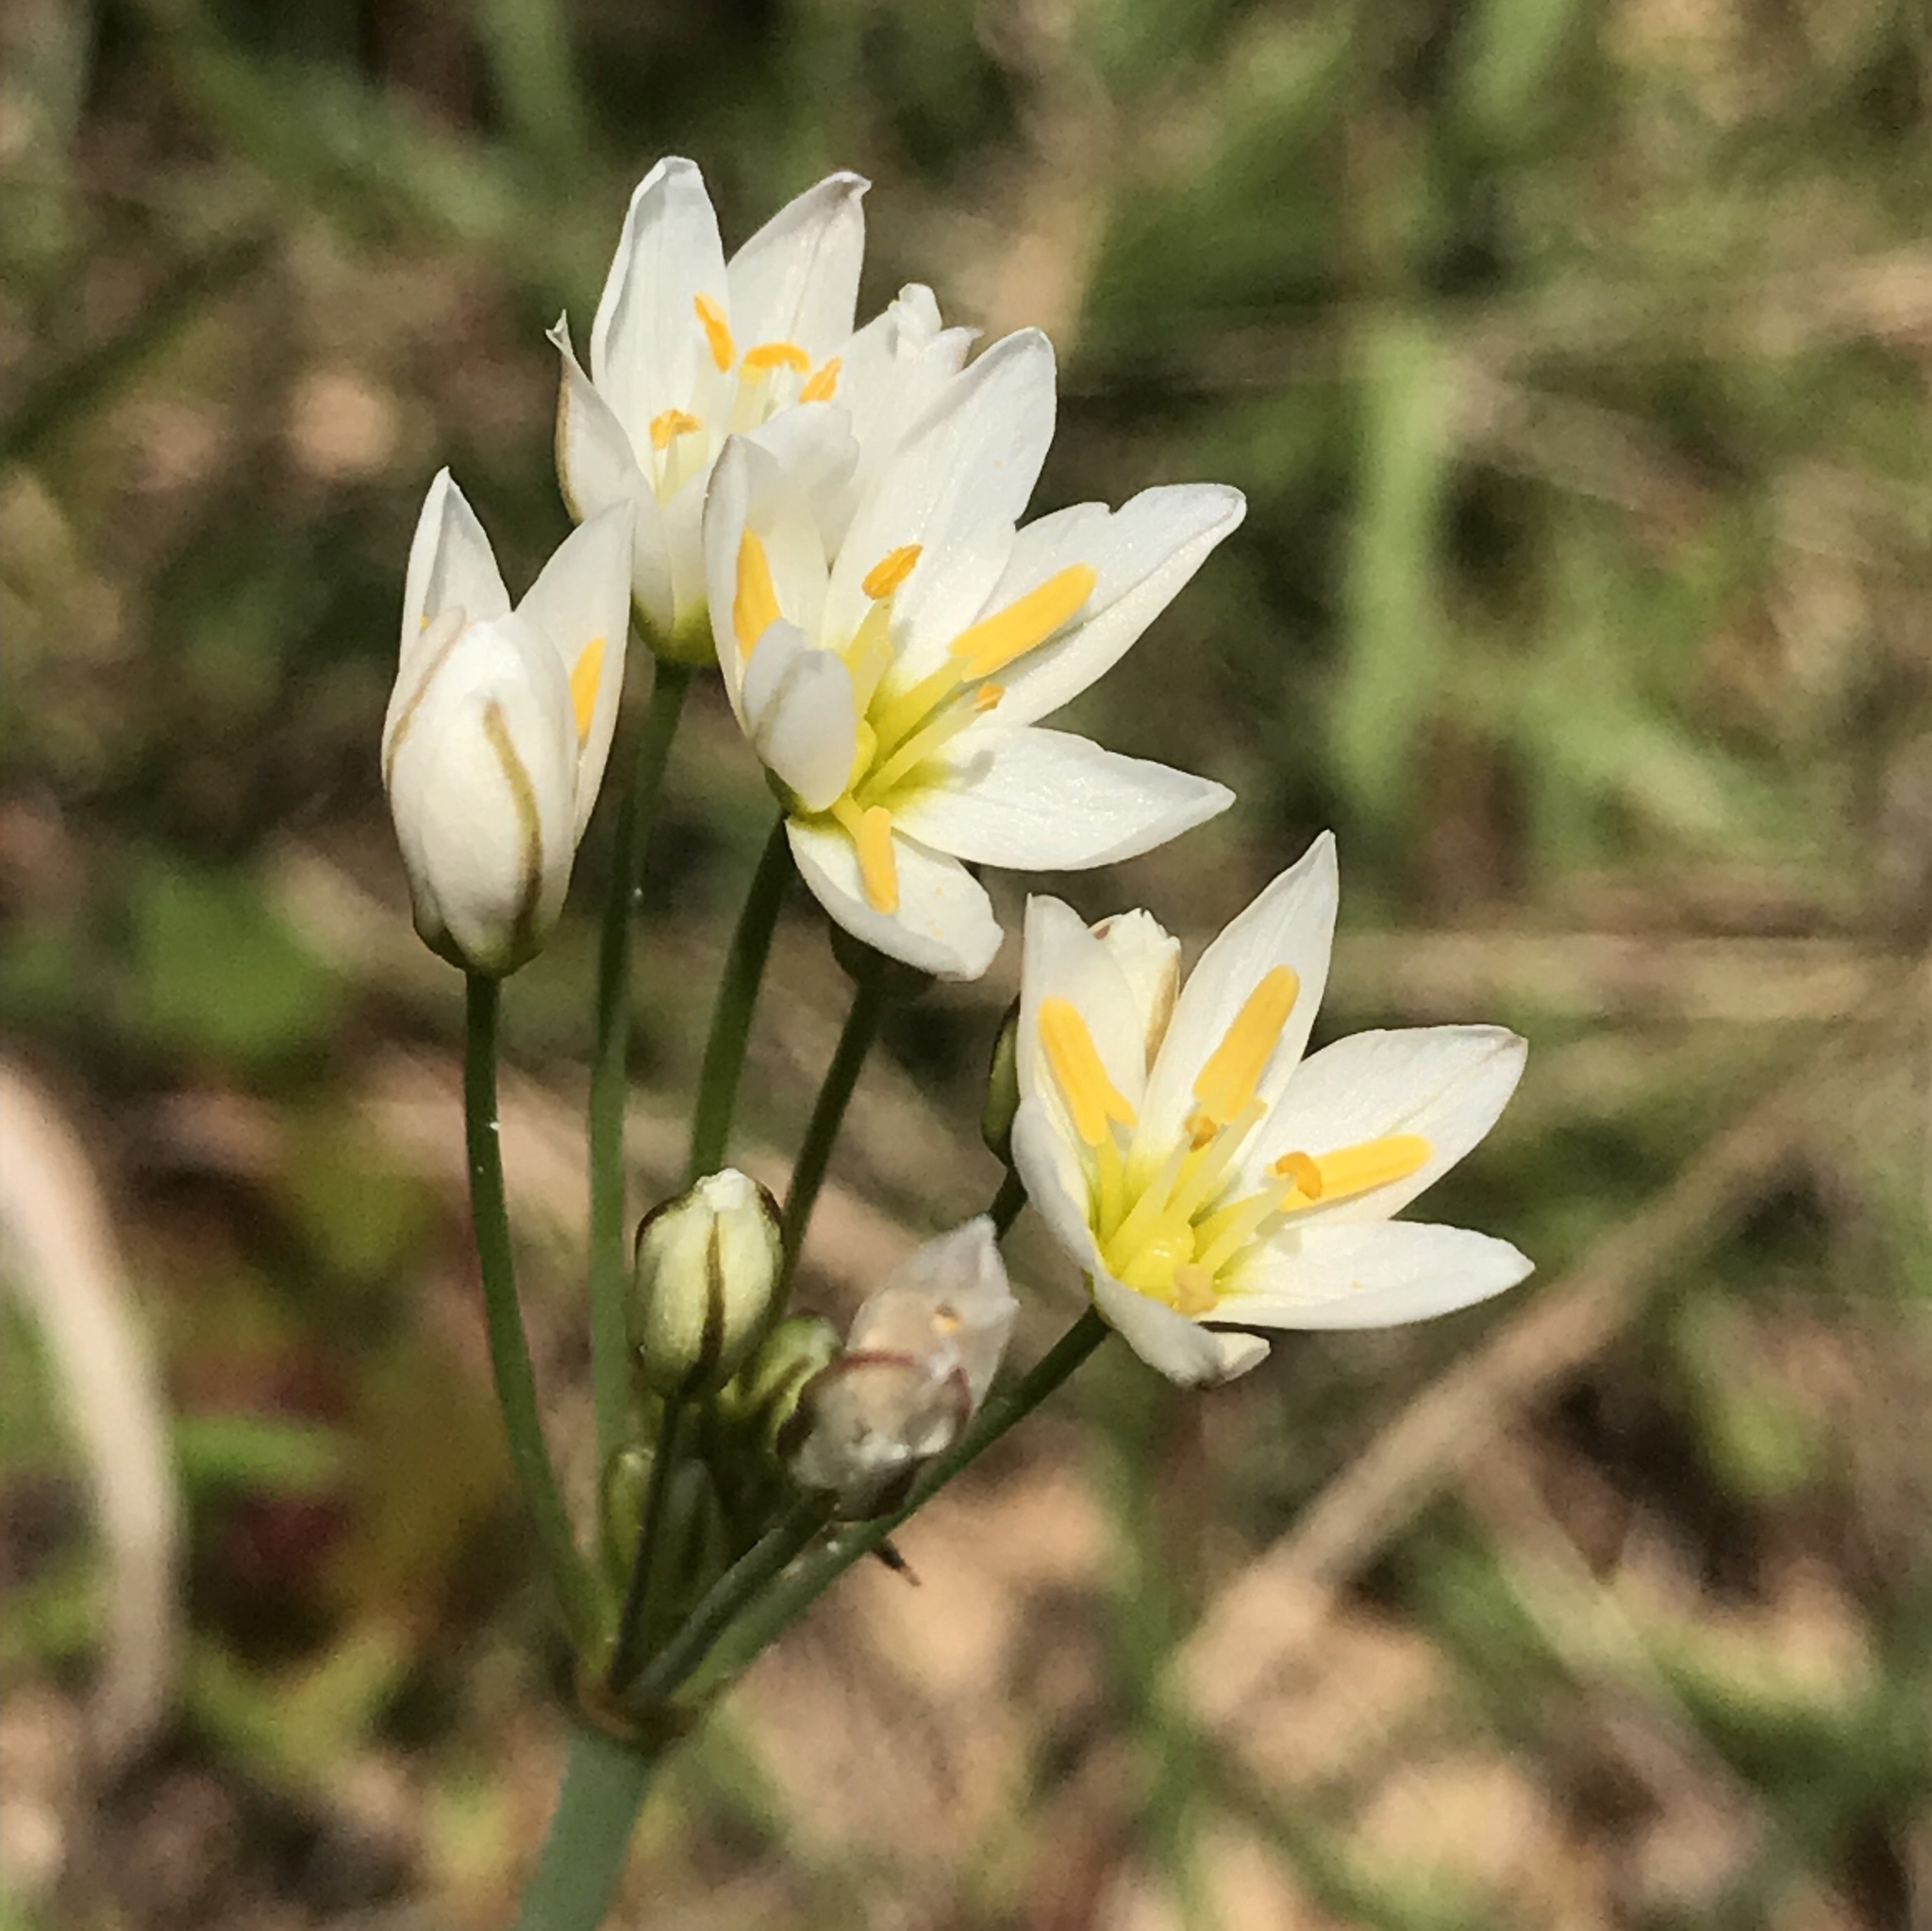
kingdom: Plantae
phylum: Tracheophyta
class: Liliopsida
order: Asparagales
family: Amaryllidaceae
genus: Nothoscordum
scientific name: Nothoscordum bivalve
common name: Crow-poison
